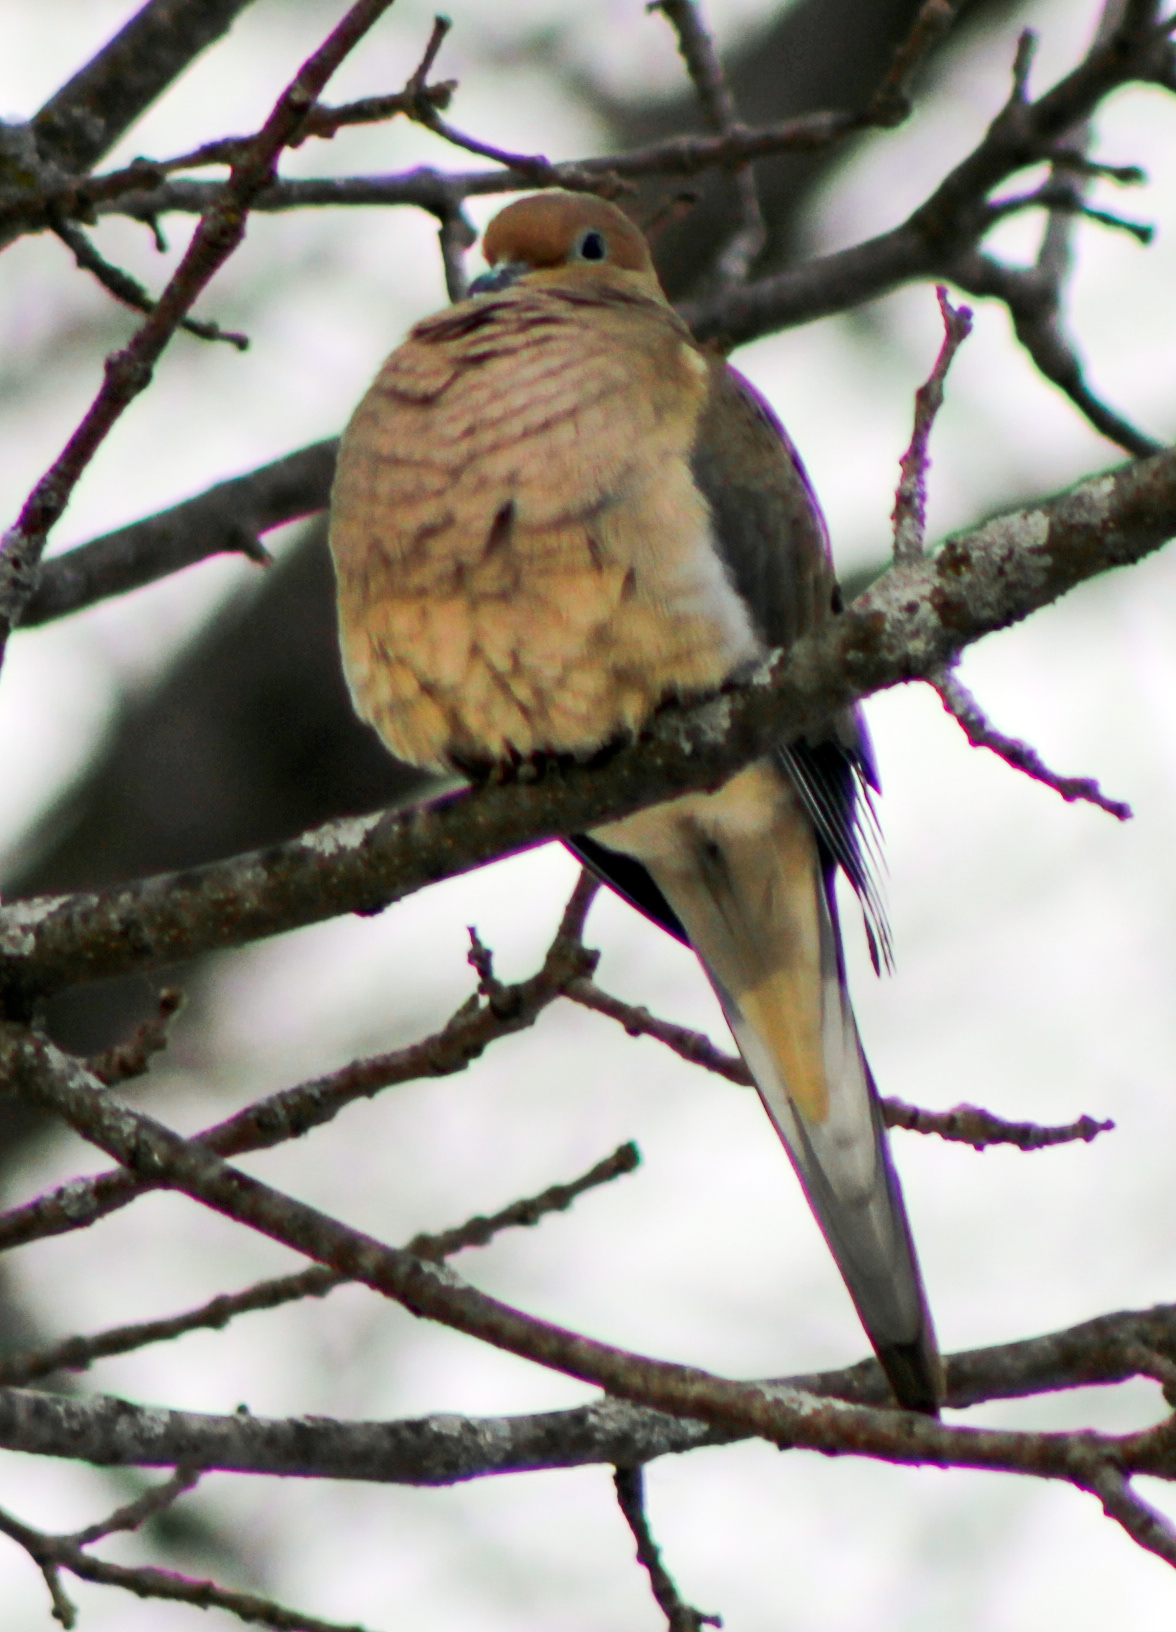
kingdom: Animalia
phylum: Chordata
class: Aves
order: Columbiformes
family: Columbidae
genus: Zenaida
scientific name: Zenaida macroura
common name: Mourning dove
